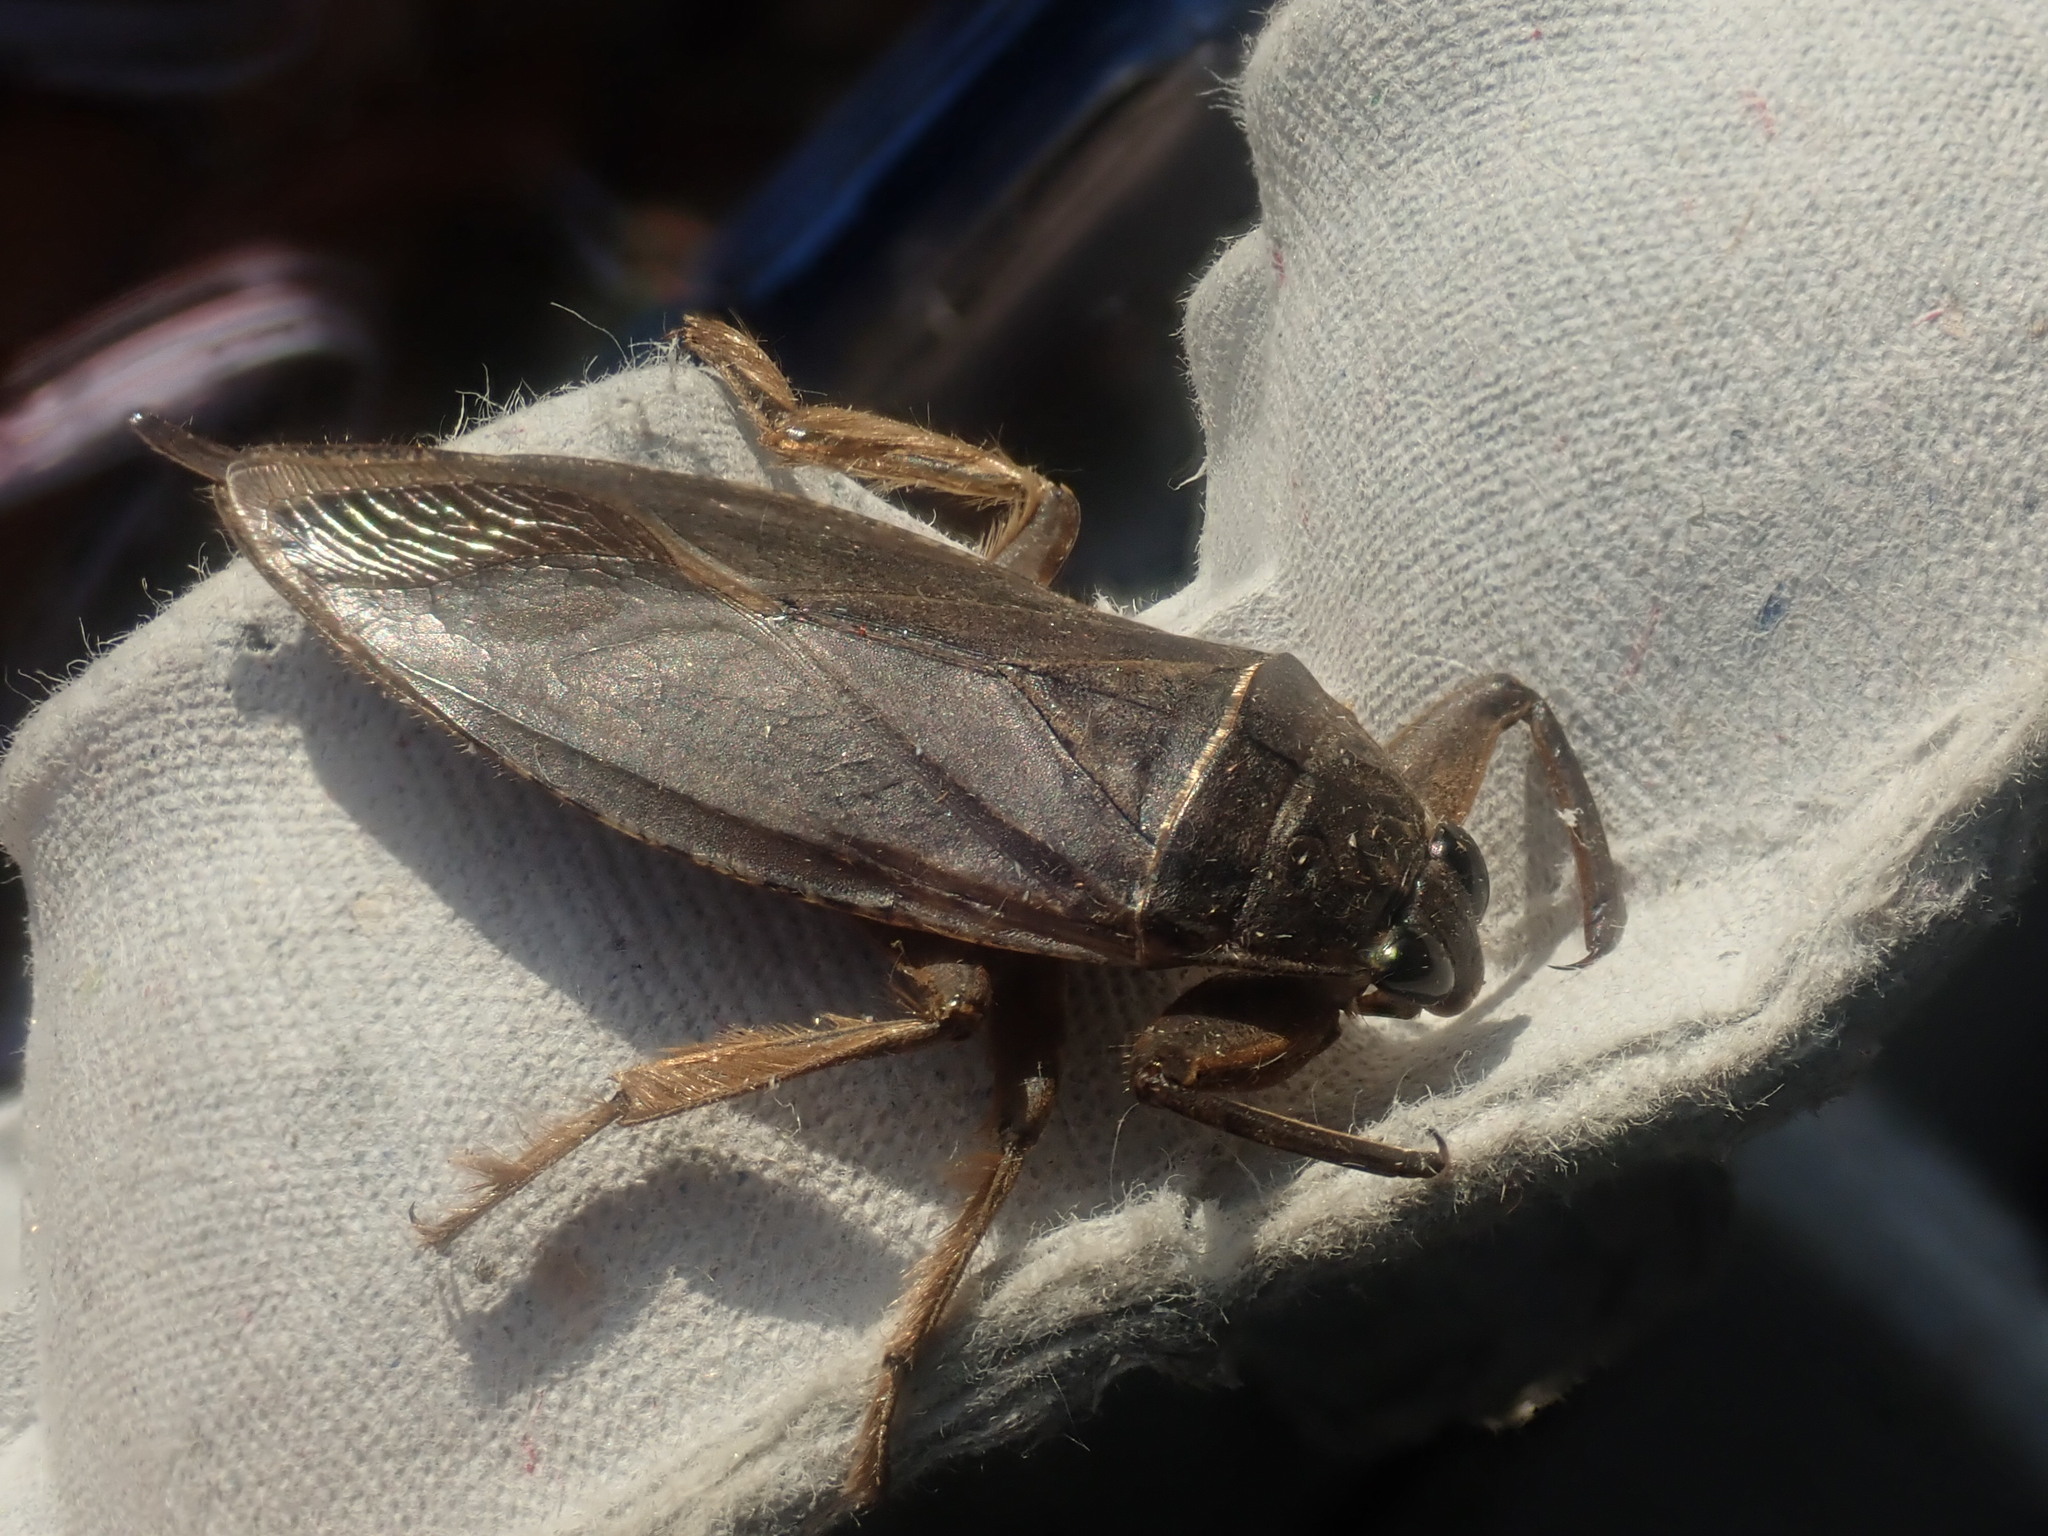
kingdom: Animalia
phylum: Arthropoda
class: Insecta
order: Hemiptera
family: Belostomatidae
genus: Lethocerus
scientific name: Lethocerus americanus
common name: Giant water bug
